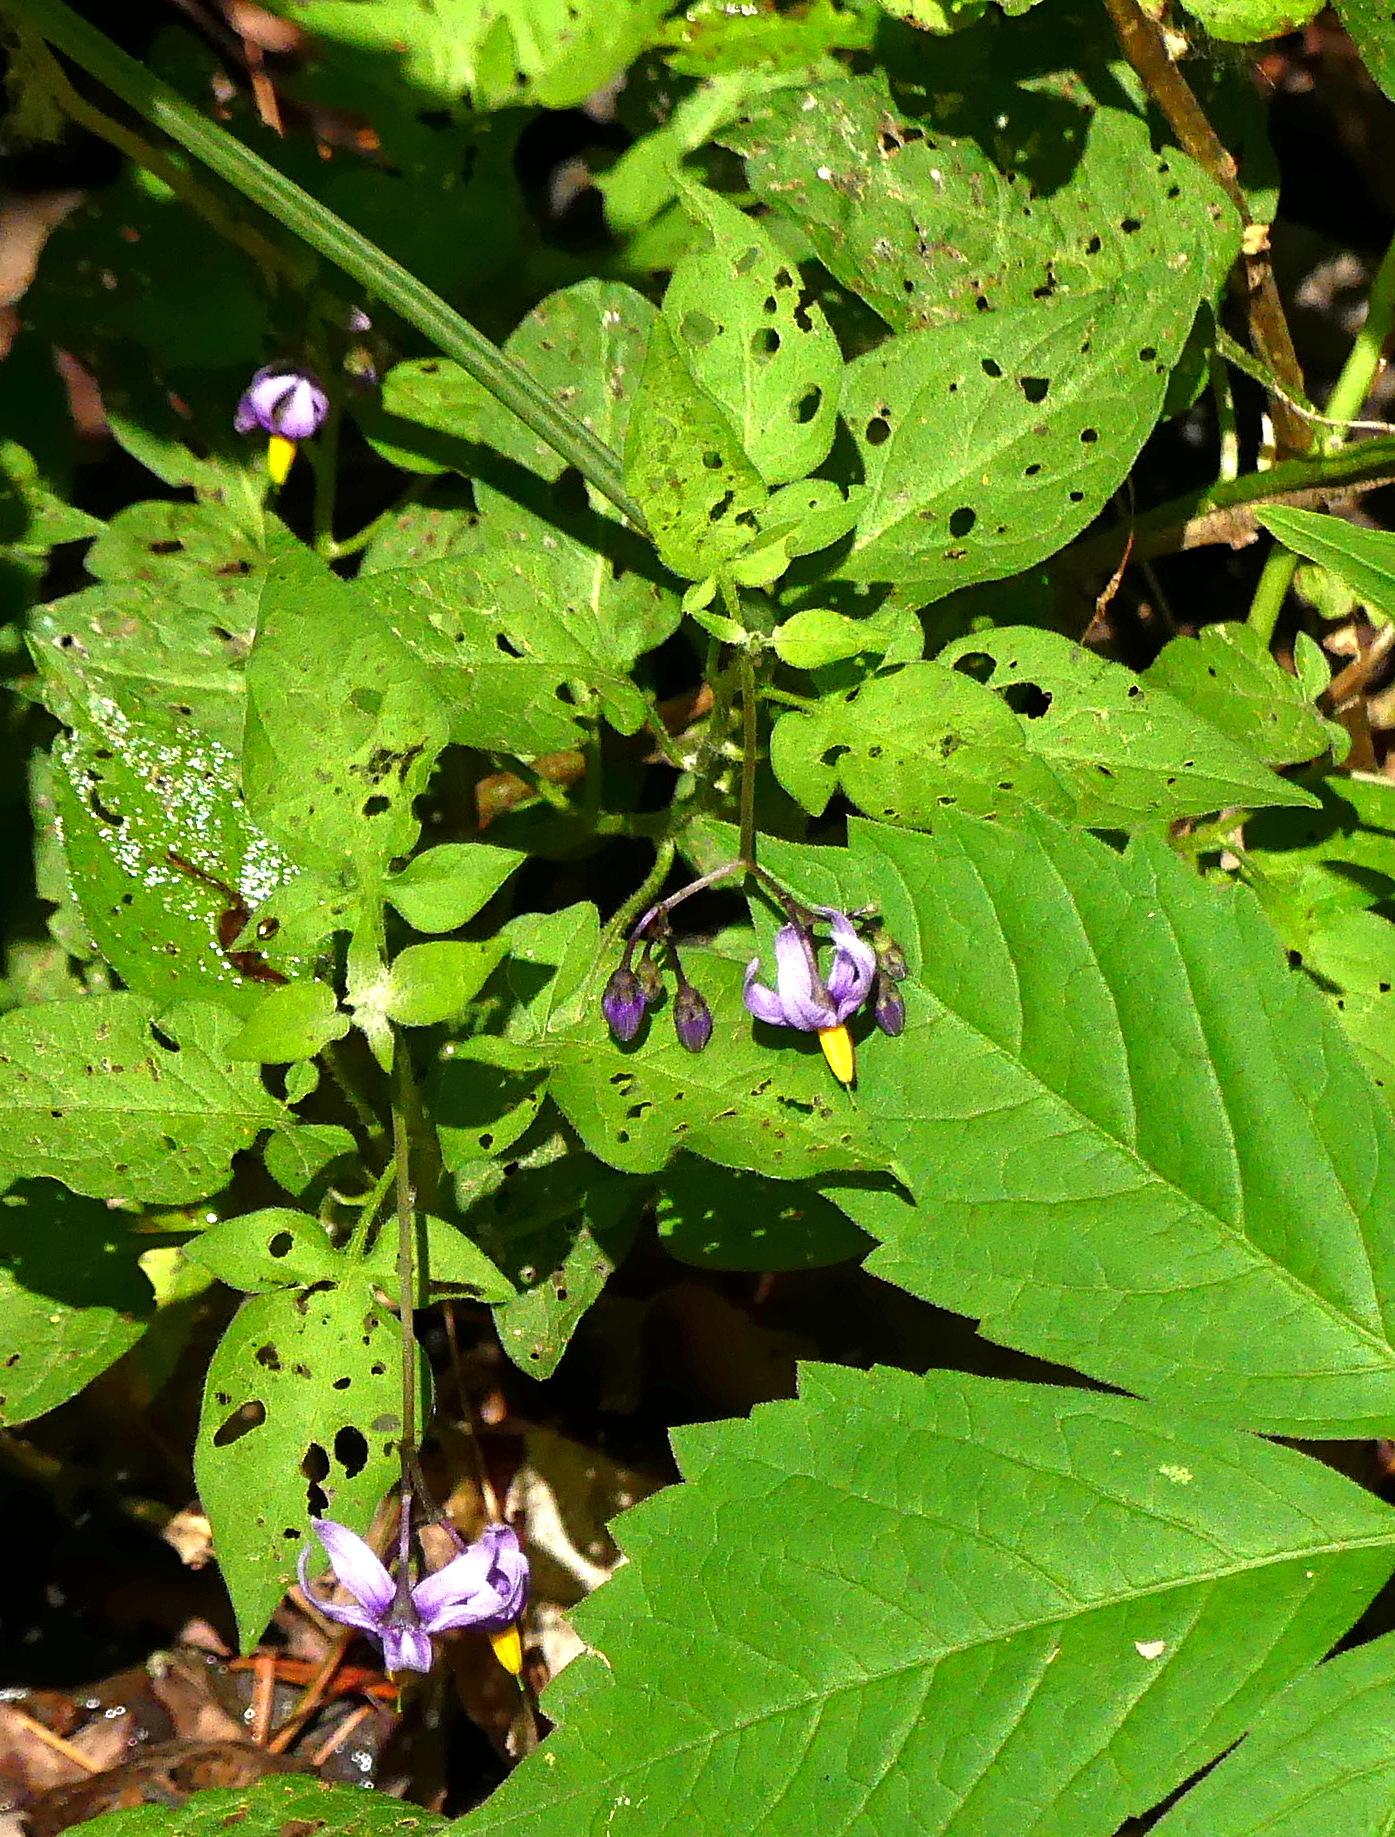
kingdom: Plantae
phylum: Tracheophyta
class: Magnoliopsida
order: Solanales
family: Solanaceae
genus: Solanum
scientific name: Solanum dulcamara
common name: Climbing nightshade
